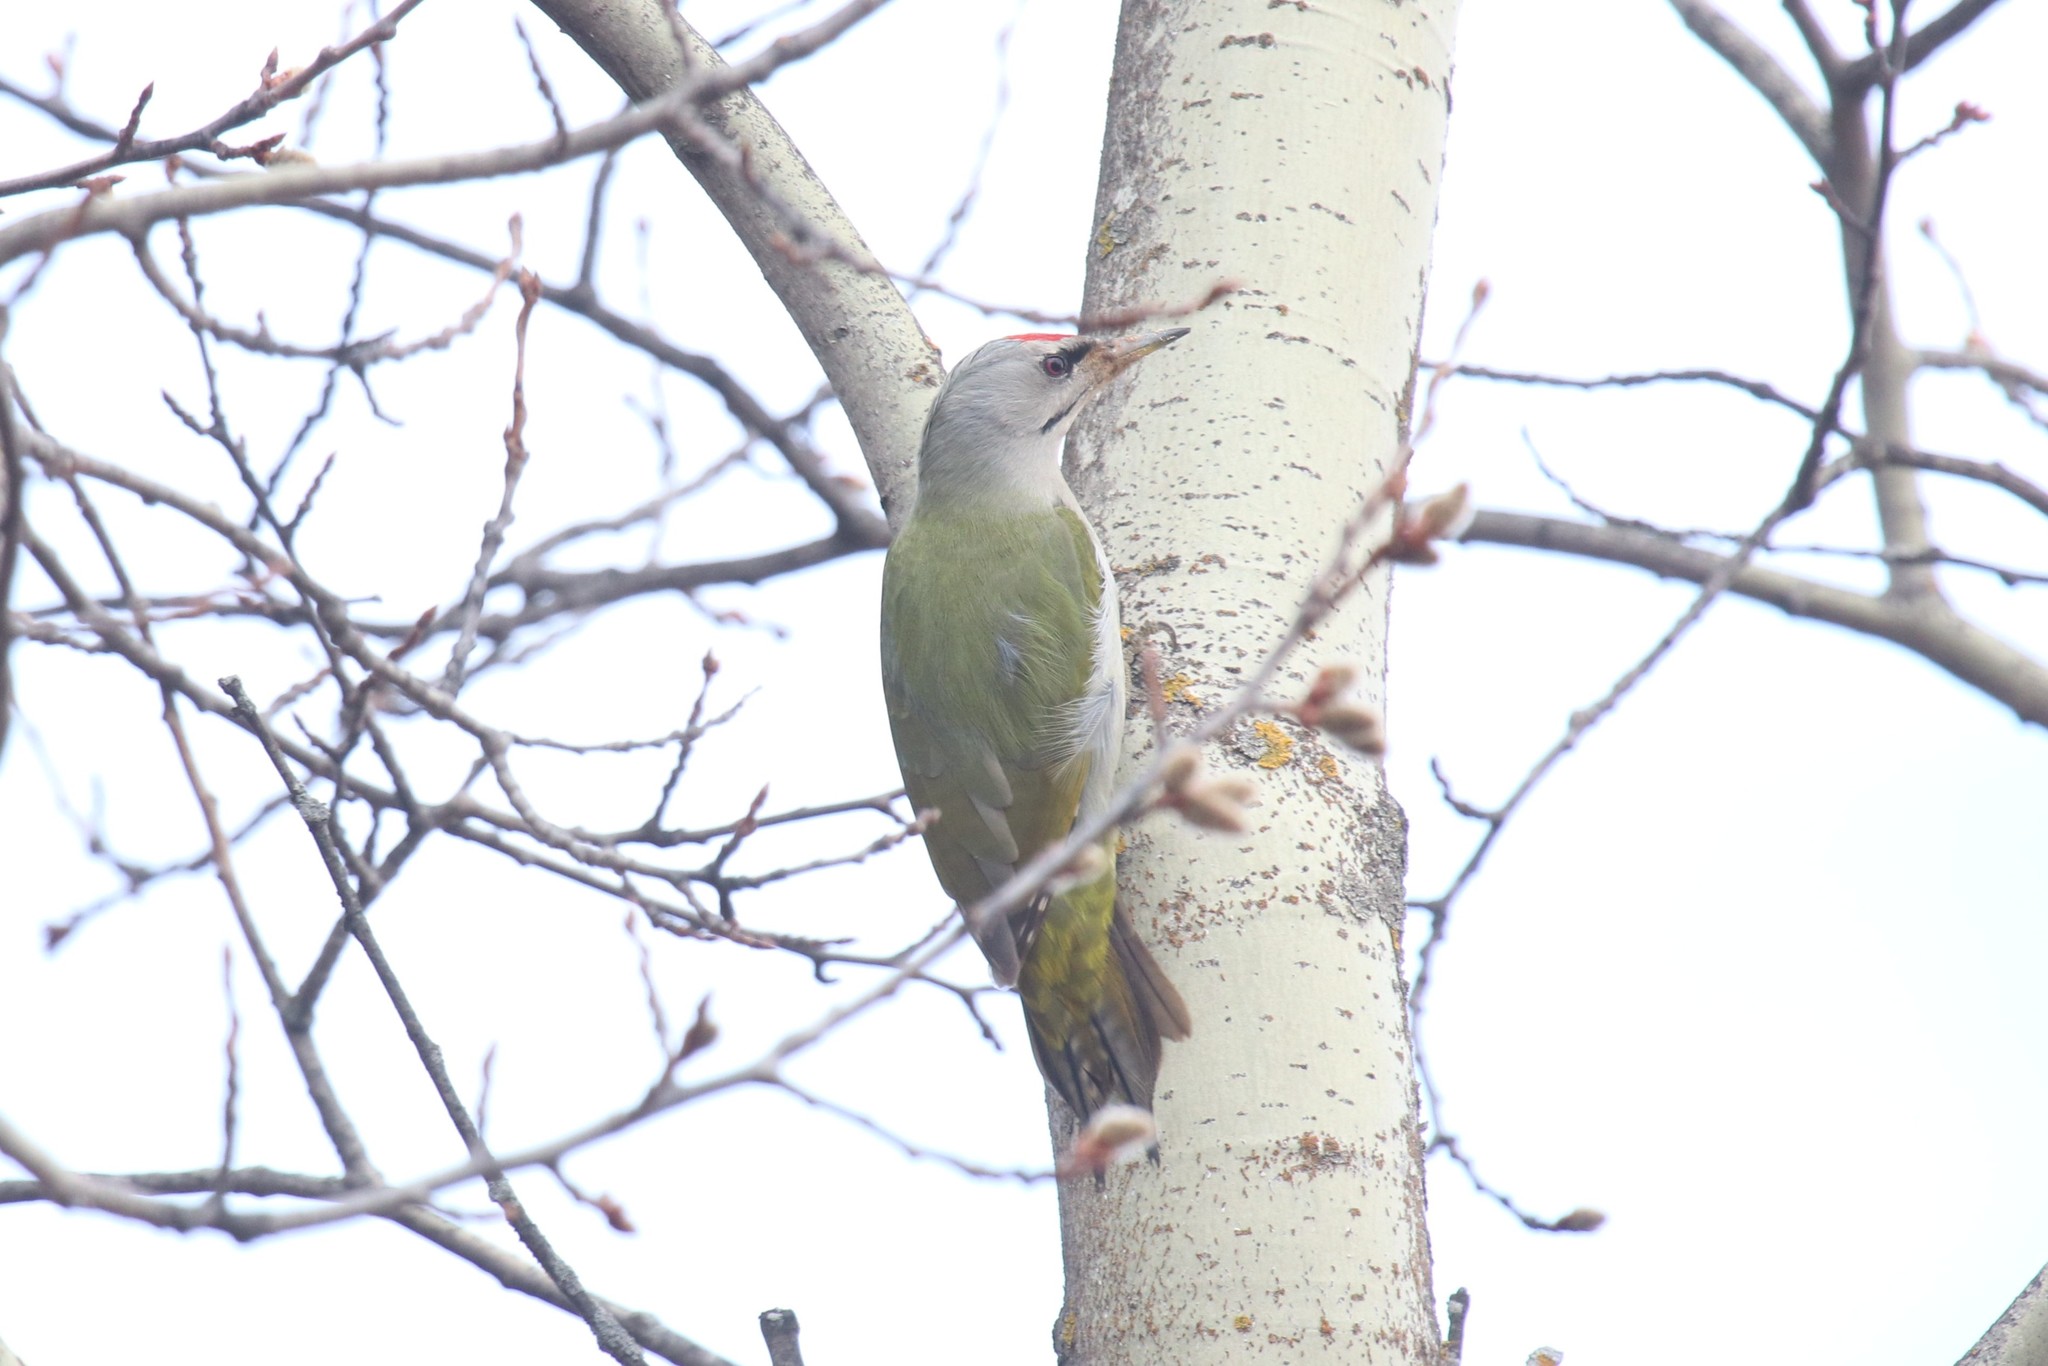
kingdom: Animalia
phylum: Chordata
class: Aves
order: Piciformes
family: Picidae
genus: Picus
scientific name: Picus canus
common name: Grey-headed woodpecker
